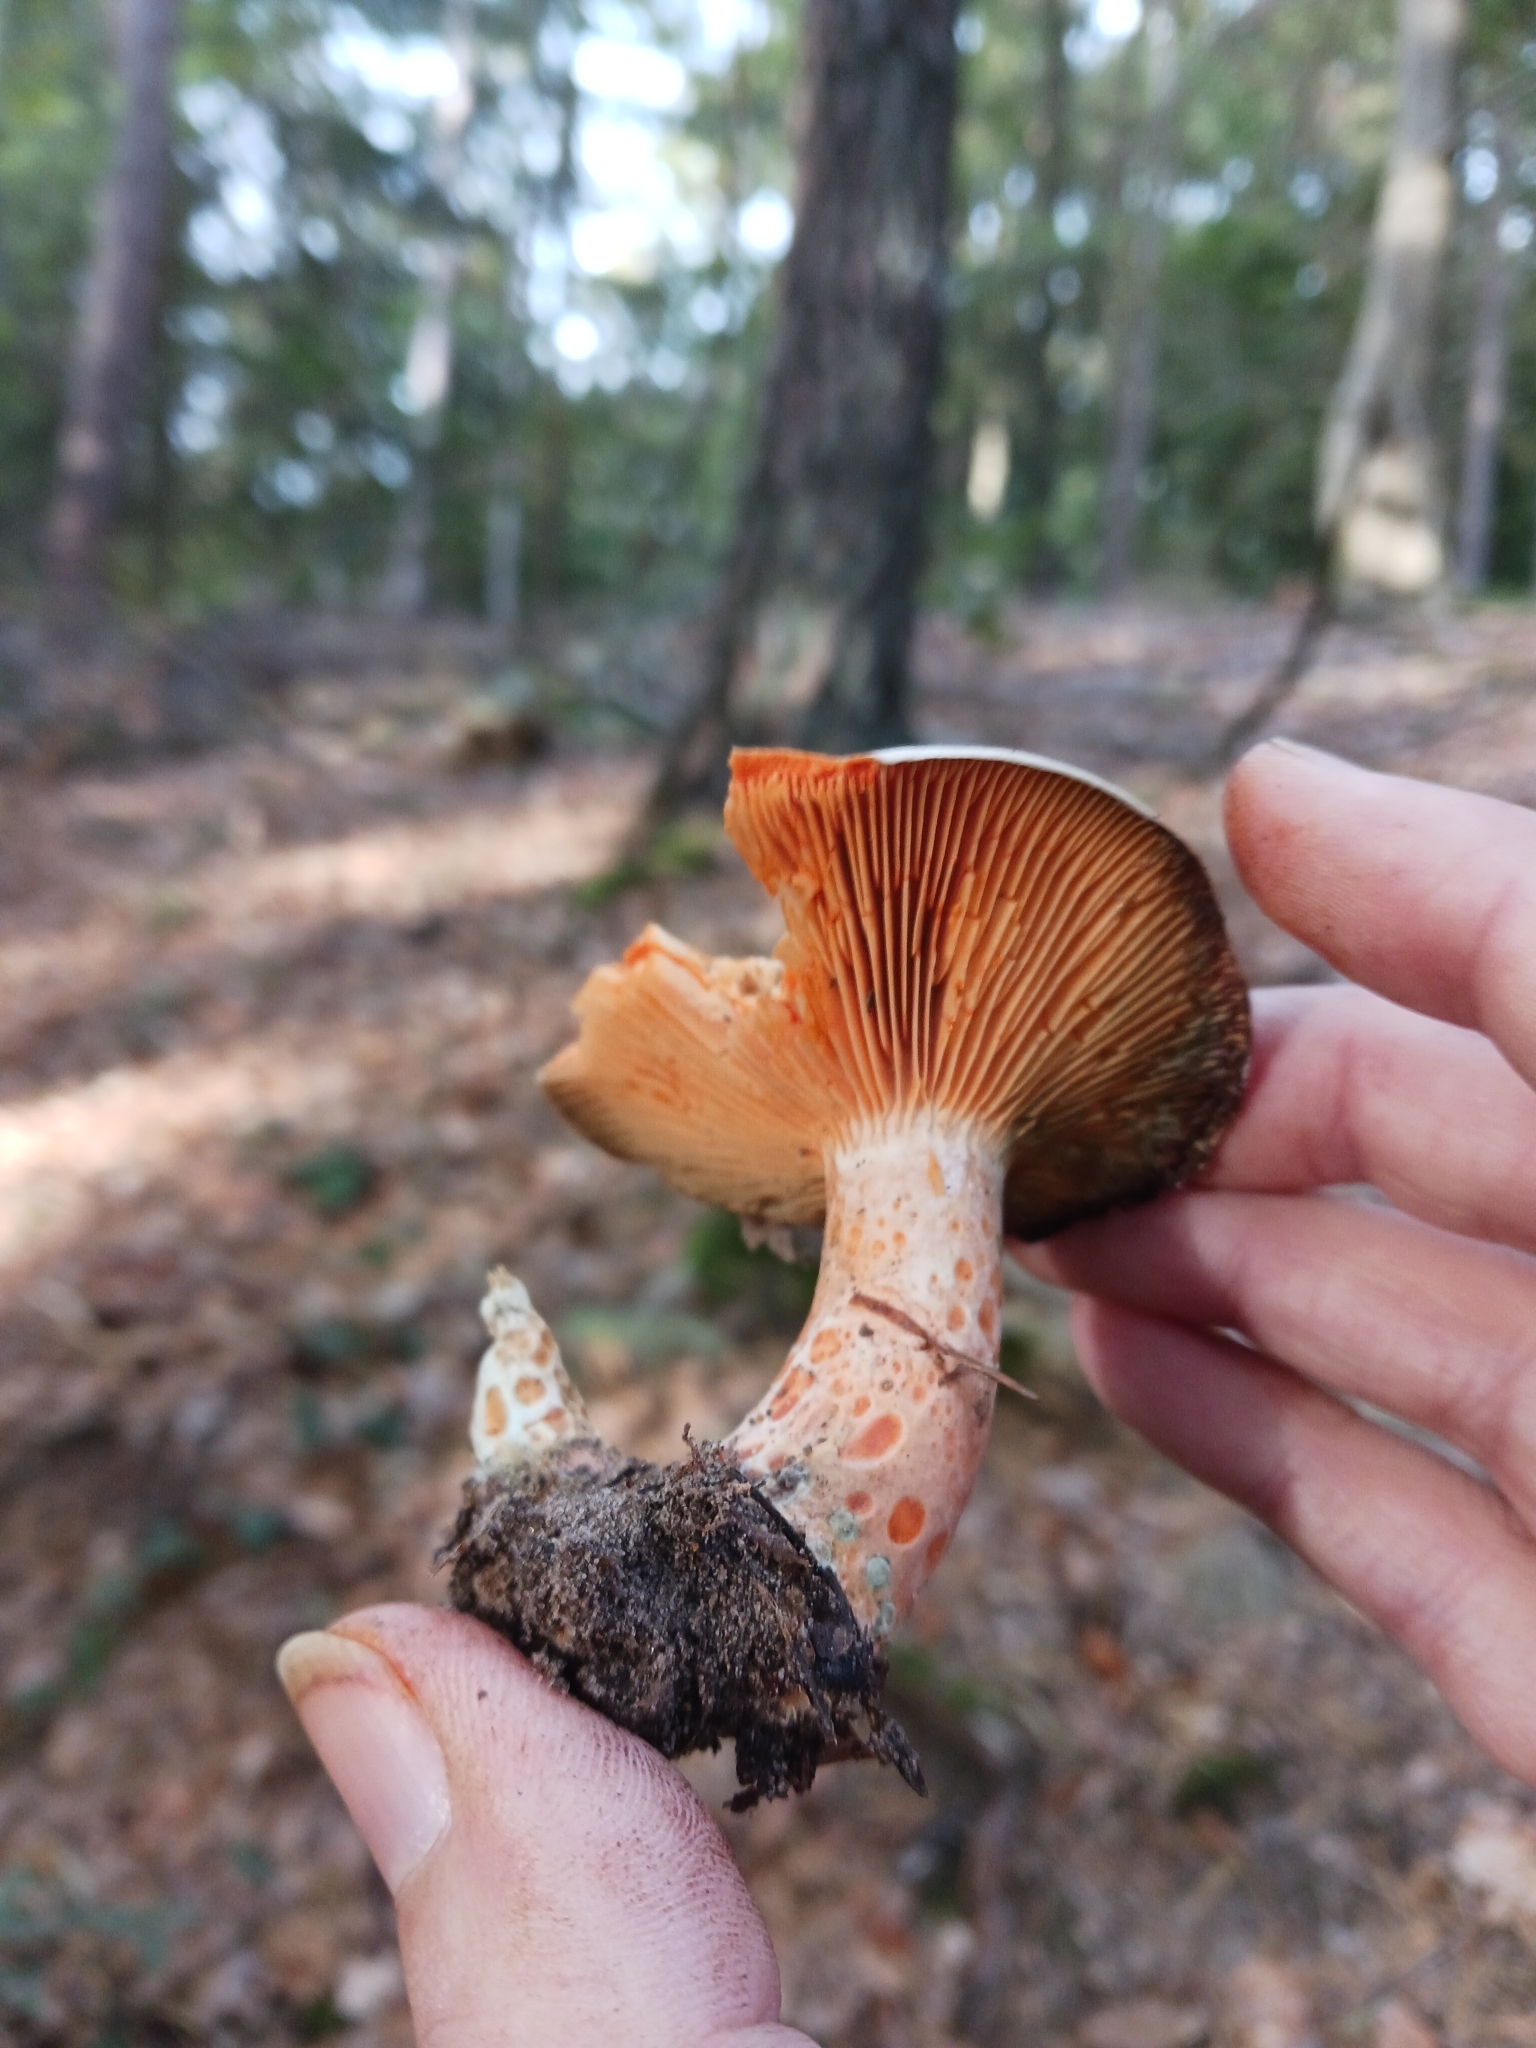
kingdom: Fungi
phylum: Basidiomycota
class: Agaricomycetes
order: Russulales
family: Russulaceae
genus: Lactarius
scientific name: Lactarius deliciosus
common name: Saffron milk-cap
